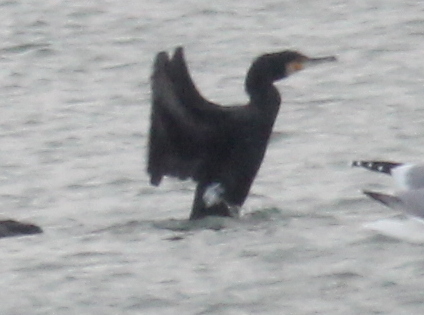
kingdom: Animalia
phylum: Chordata
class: Aves
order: Suliformes
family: Phalacrocoracidae
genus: Phalacrocorax
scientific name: Phalacrocorax carbo
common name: Great cormorant
